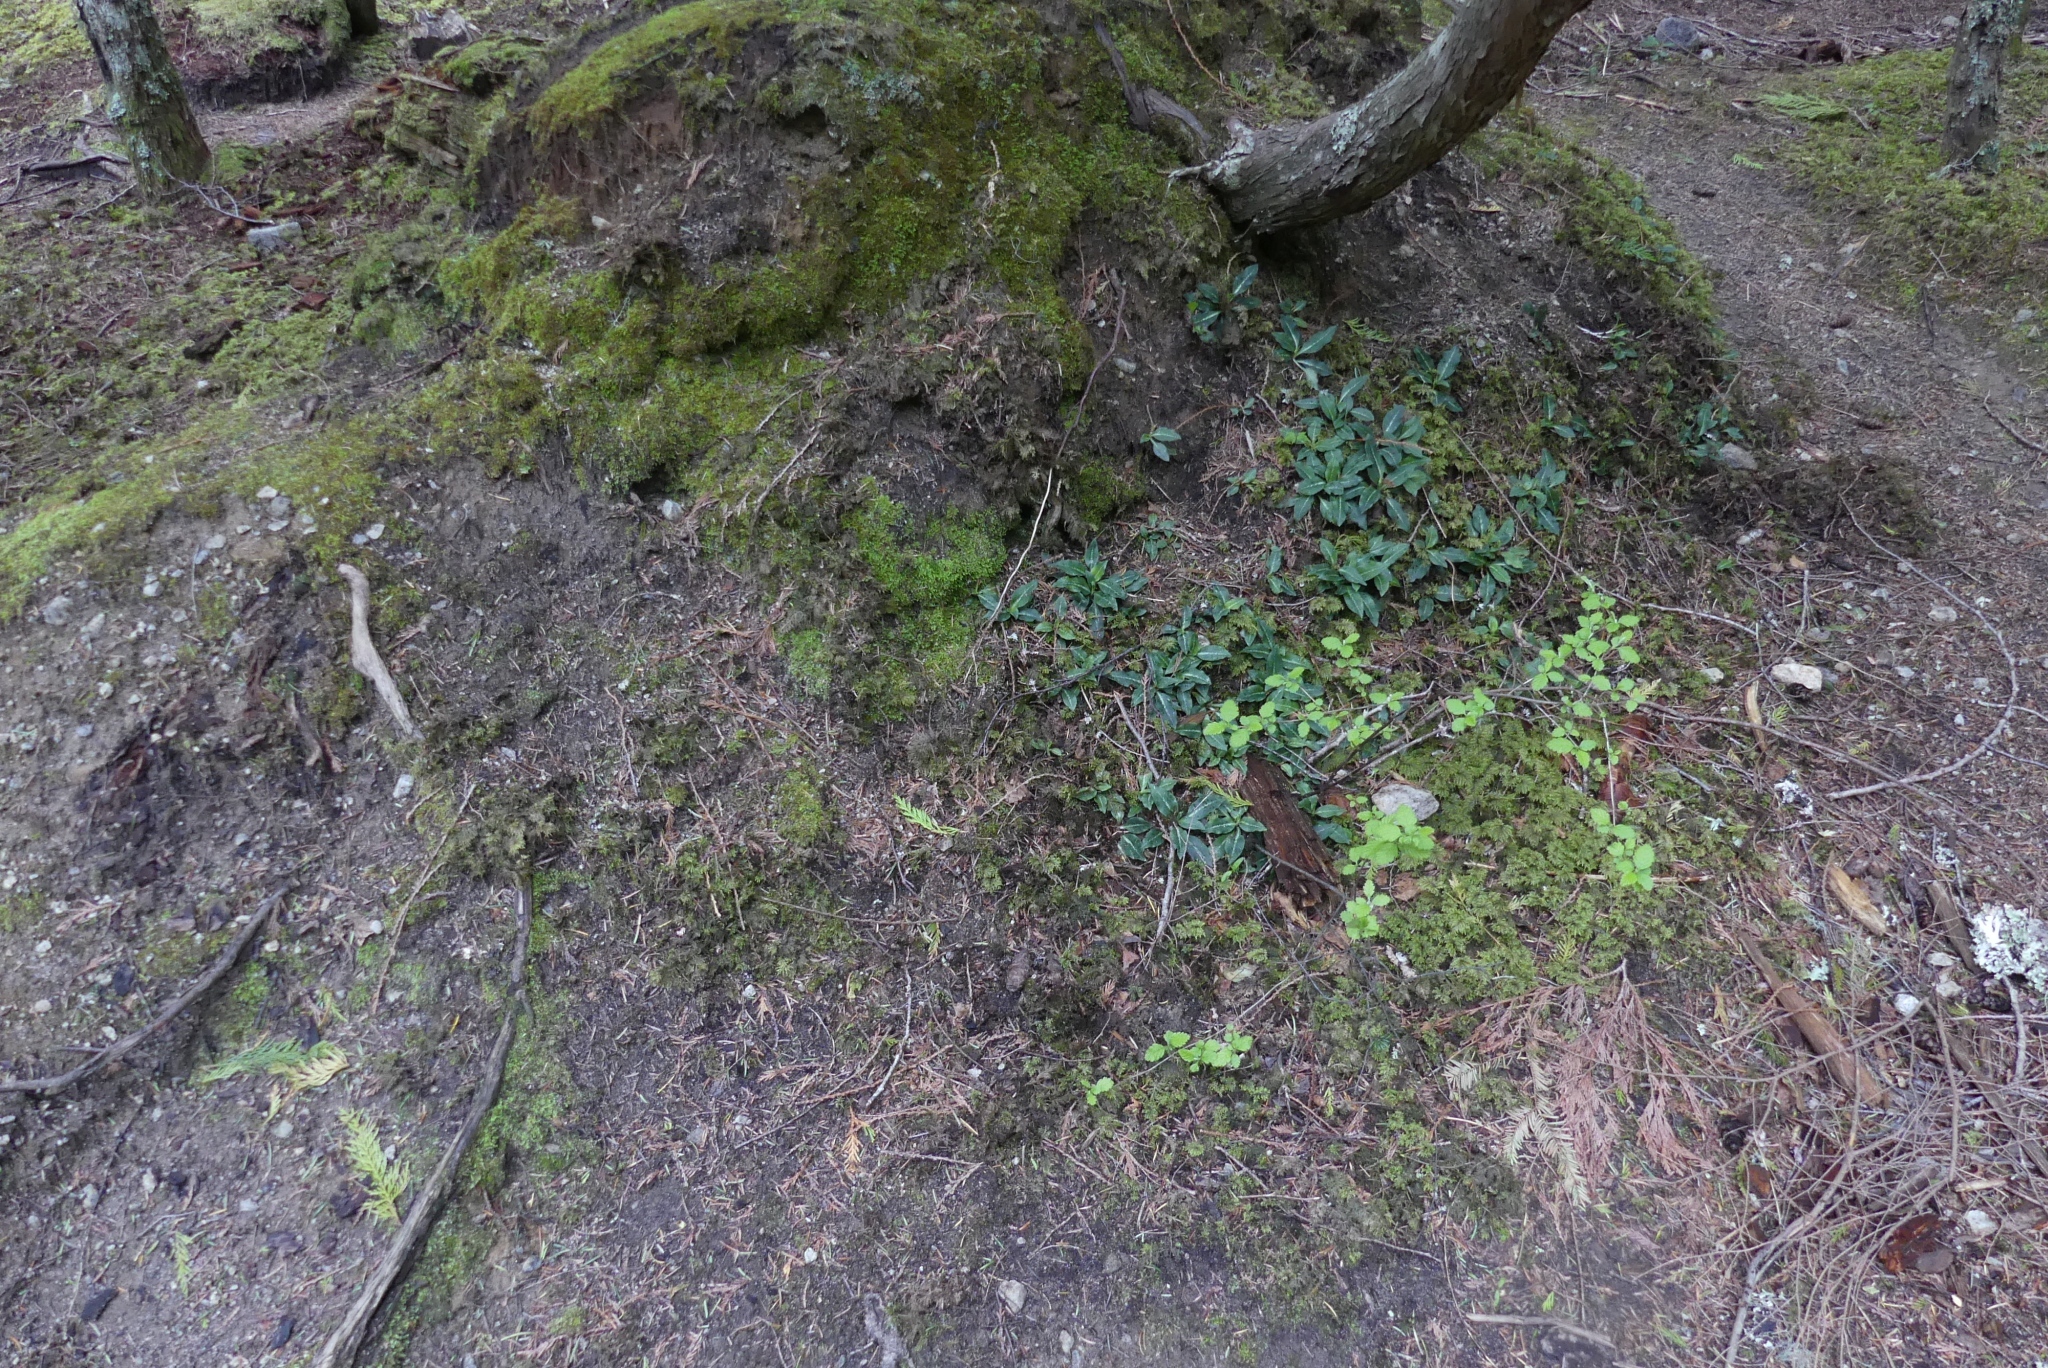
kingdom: Plantae
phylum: Tracheophyta
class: Liliopsida
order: Asparagales
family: Orchidaceae
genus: Goodyera
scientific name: Goodyera oblongifolia
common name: Giant rattlesnake-plantain
